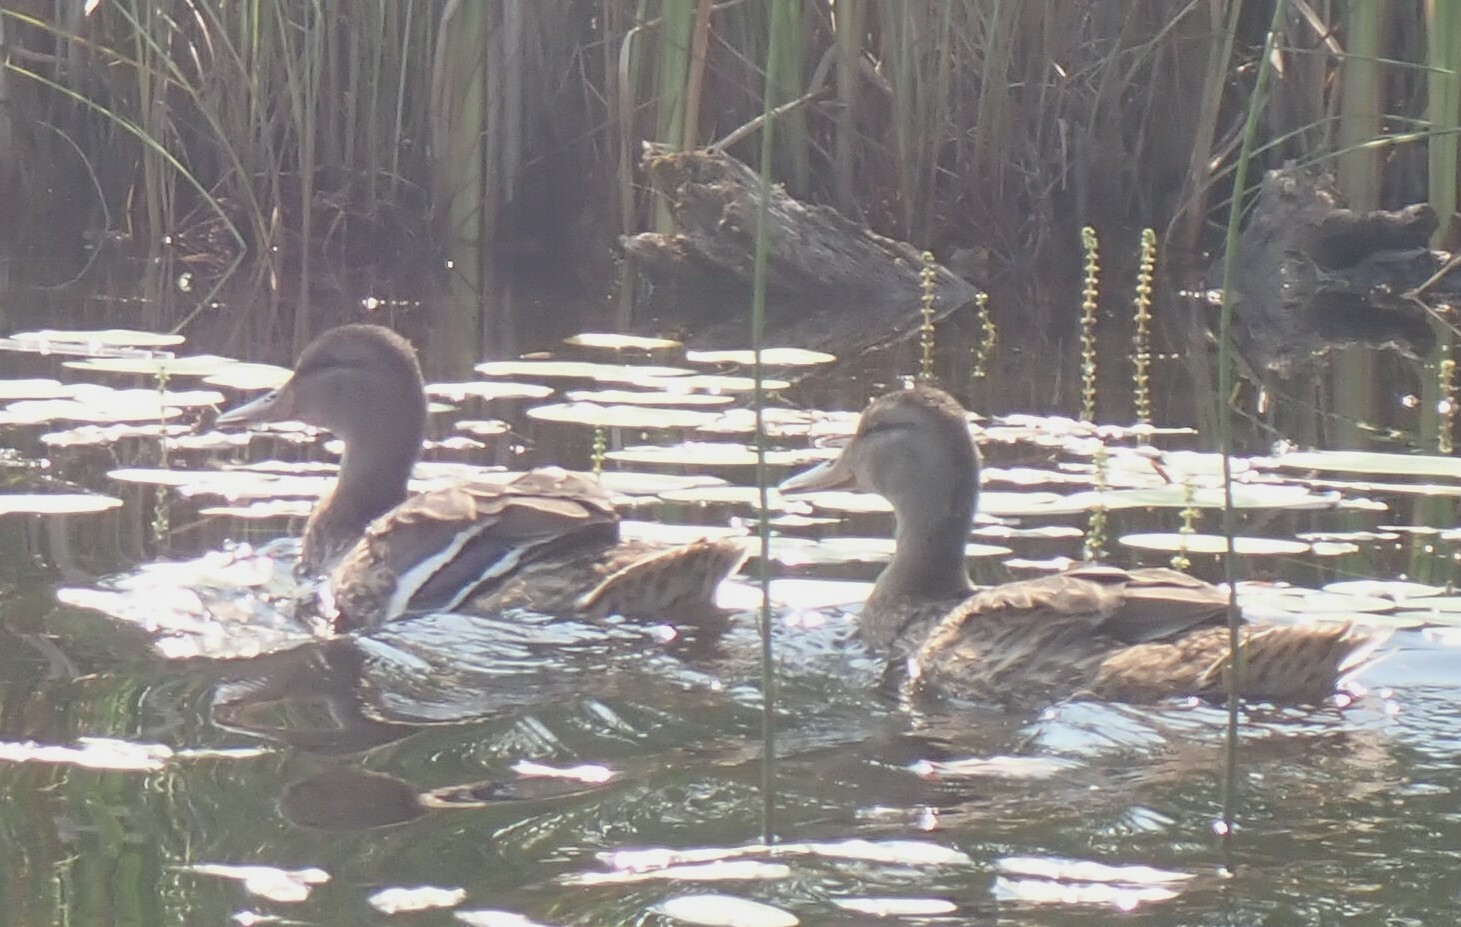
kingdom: Animalia
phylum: Chordata
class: Aves
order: Anseriformes
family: Anatidae
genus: Anas
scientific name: Anas platyrhynchos
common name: Mallard
